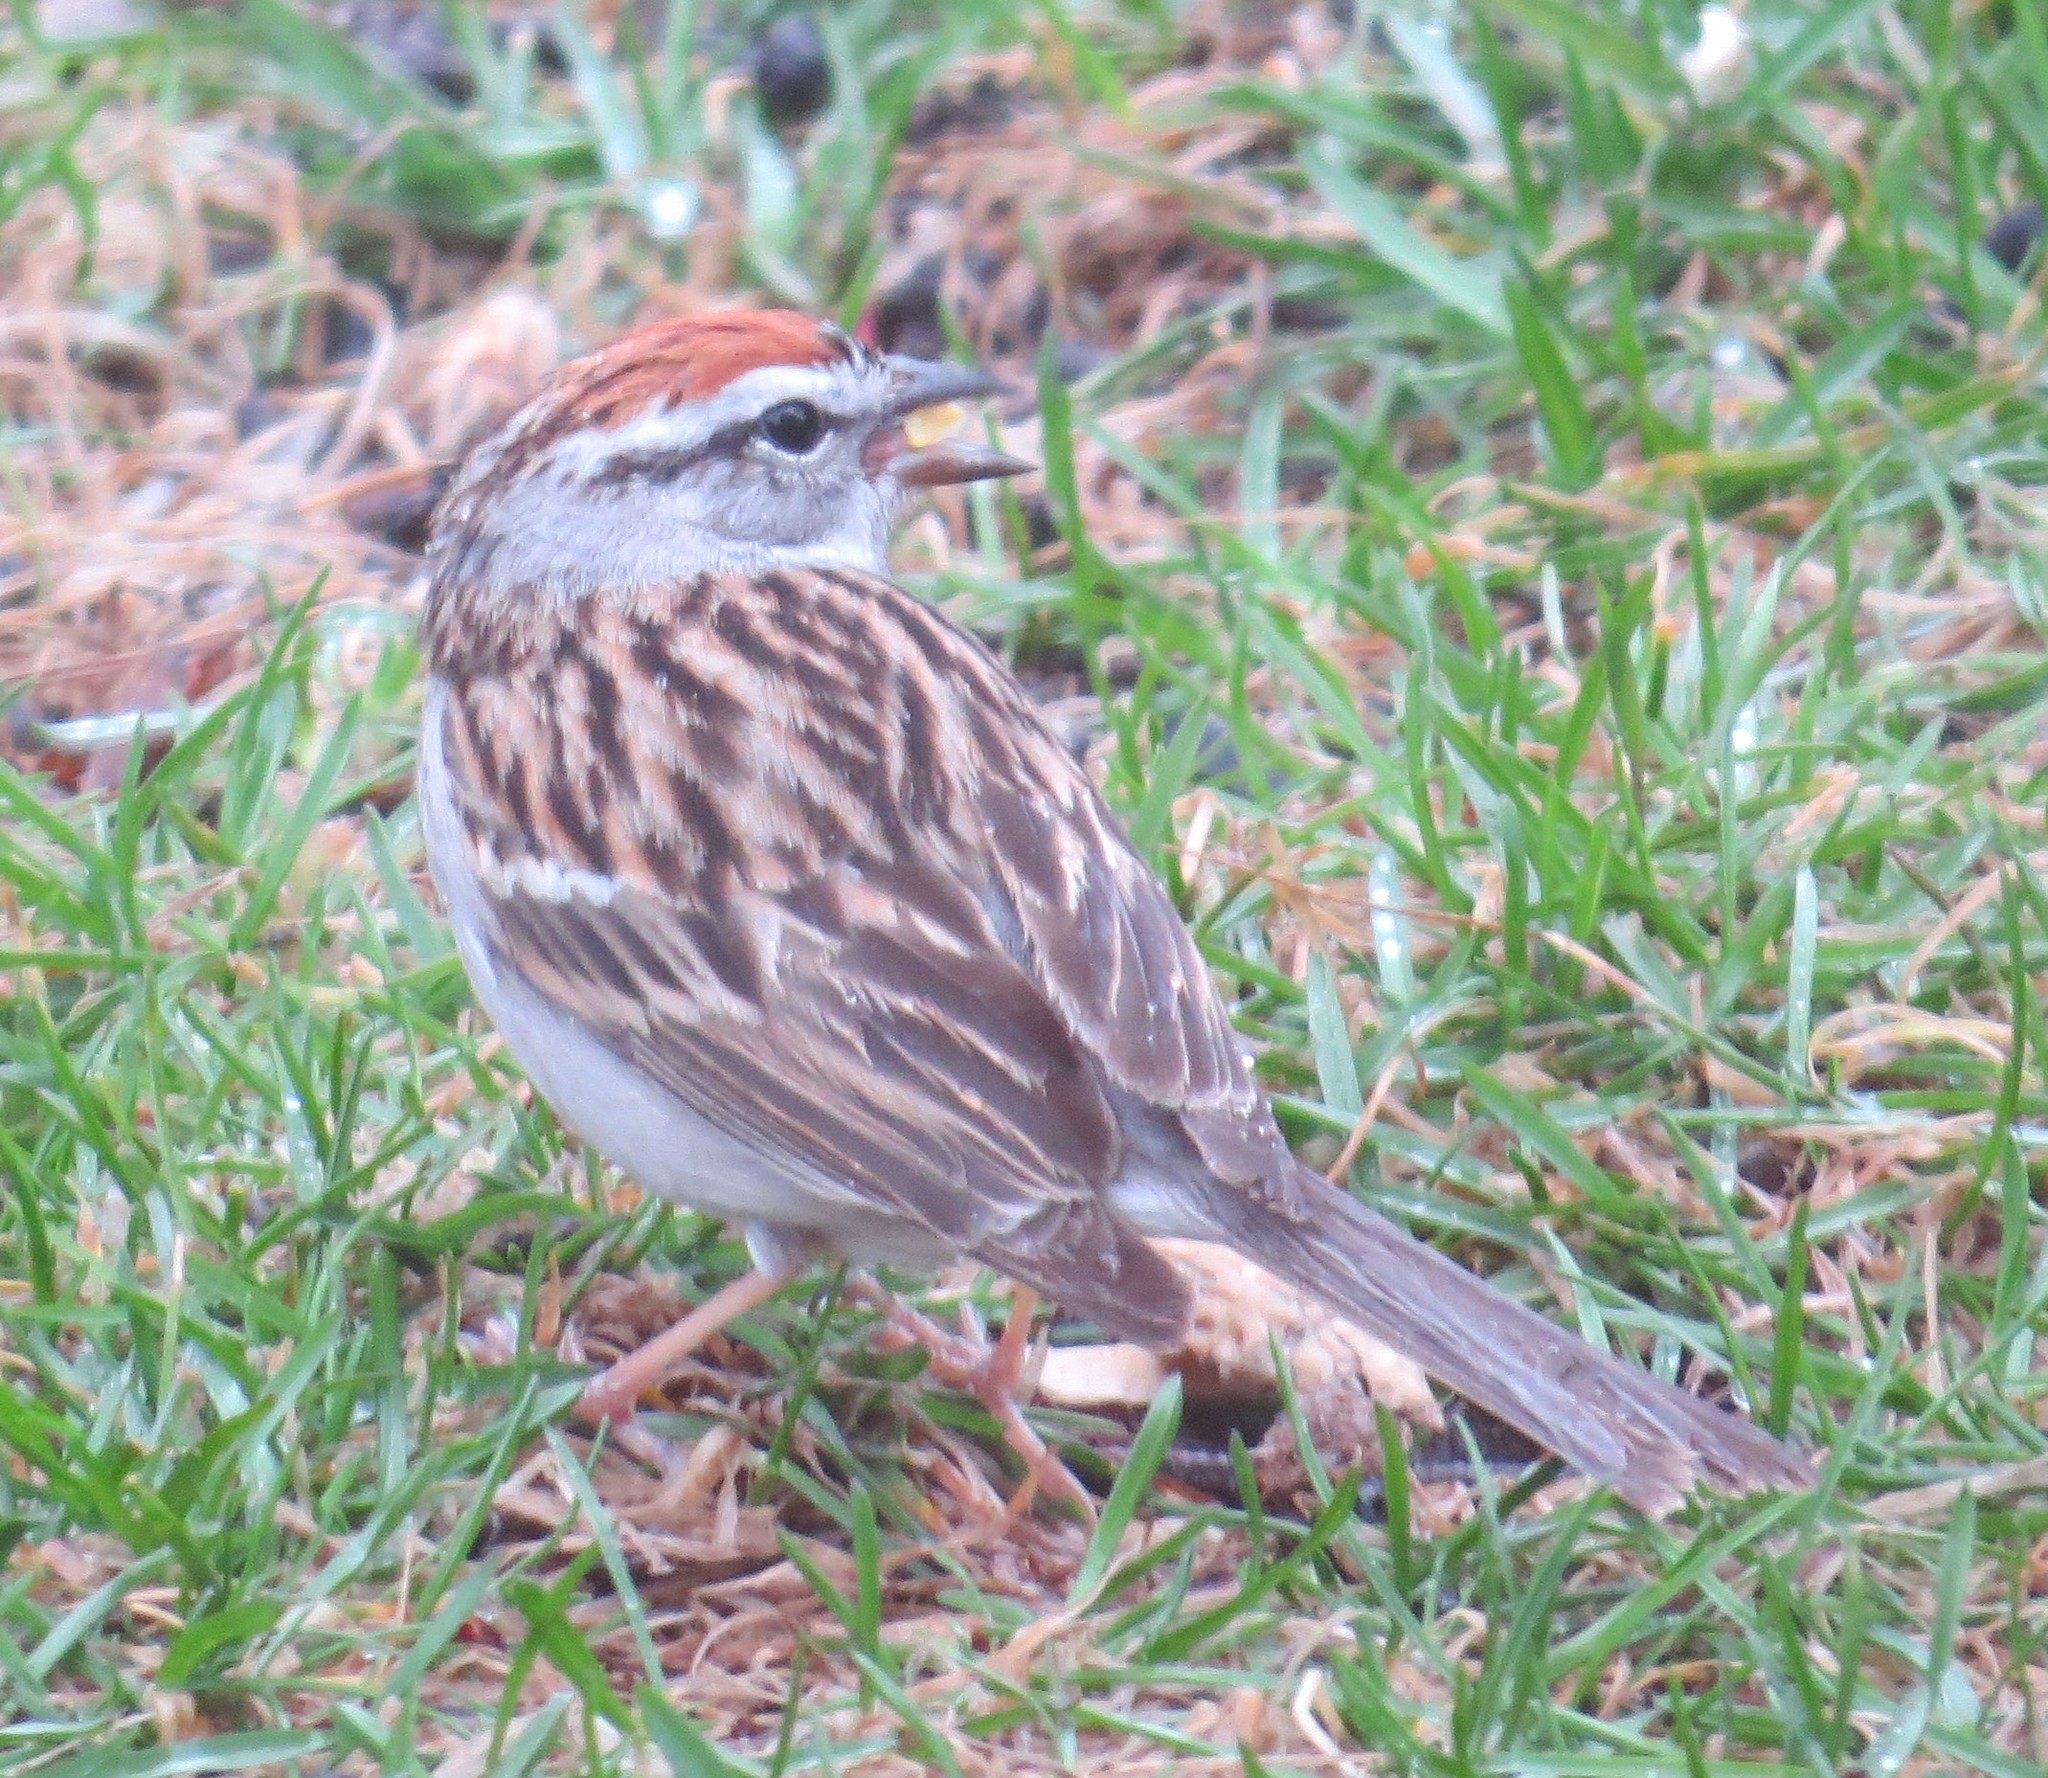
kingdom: Animalia
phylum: Chordata
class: Aves
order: Passeriformes
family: Passerellidae
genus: Spizella
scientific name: Spizella passerina
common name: Chipping sparrow
